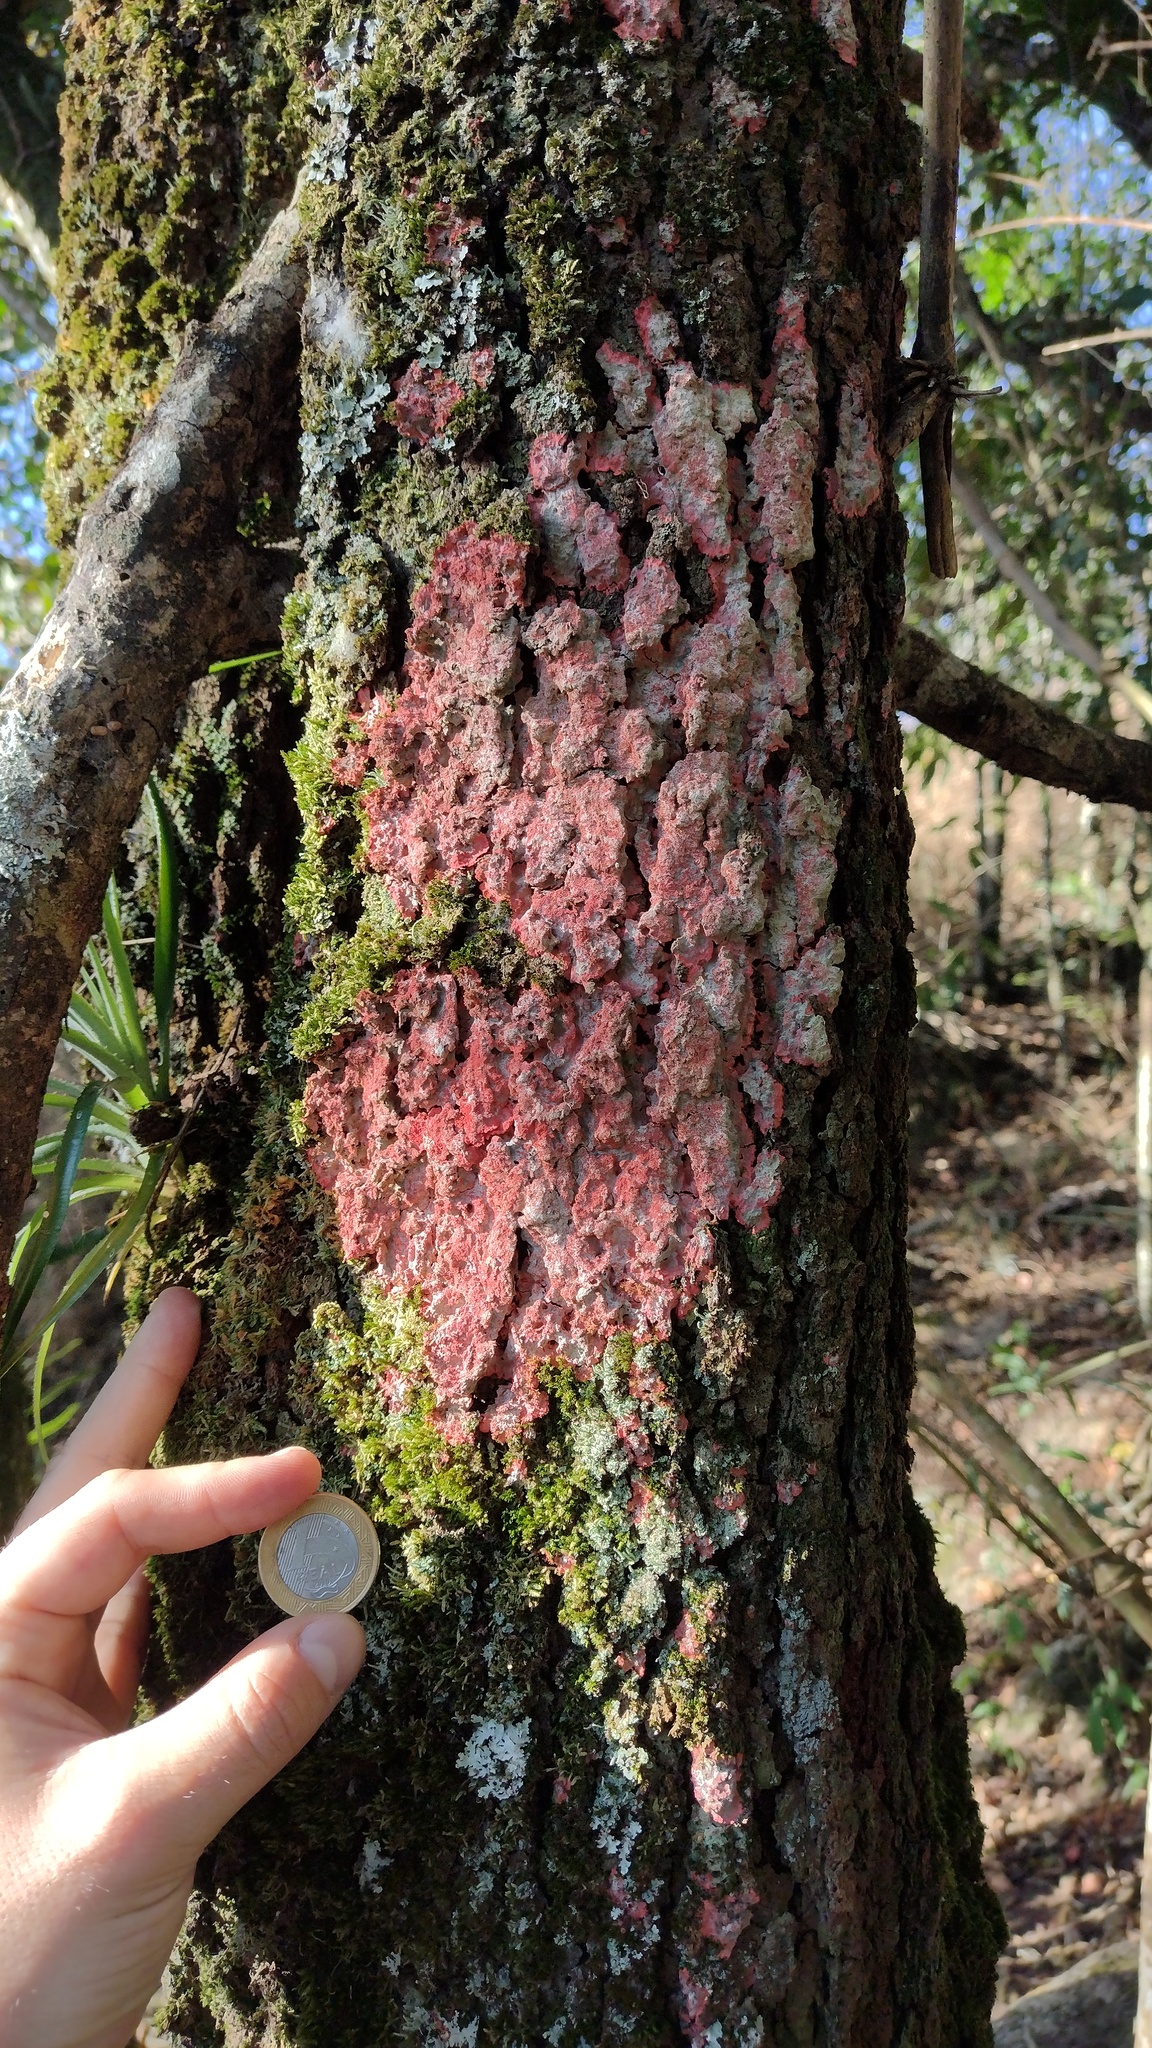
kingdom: Fungi
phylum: Ascomycota
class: Arthoniomycetes
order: Arthoniales
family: Arthoniaceae
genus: Herpothallon
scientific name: Herpothallon rubrocinctum
